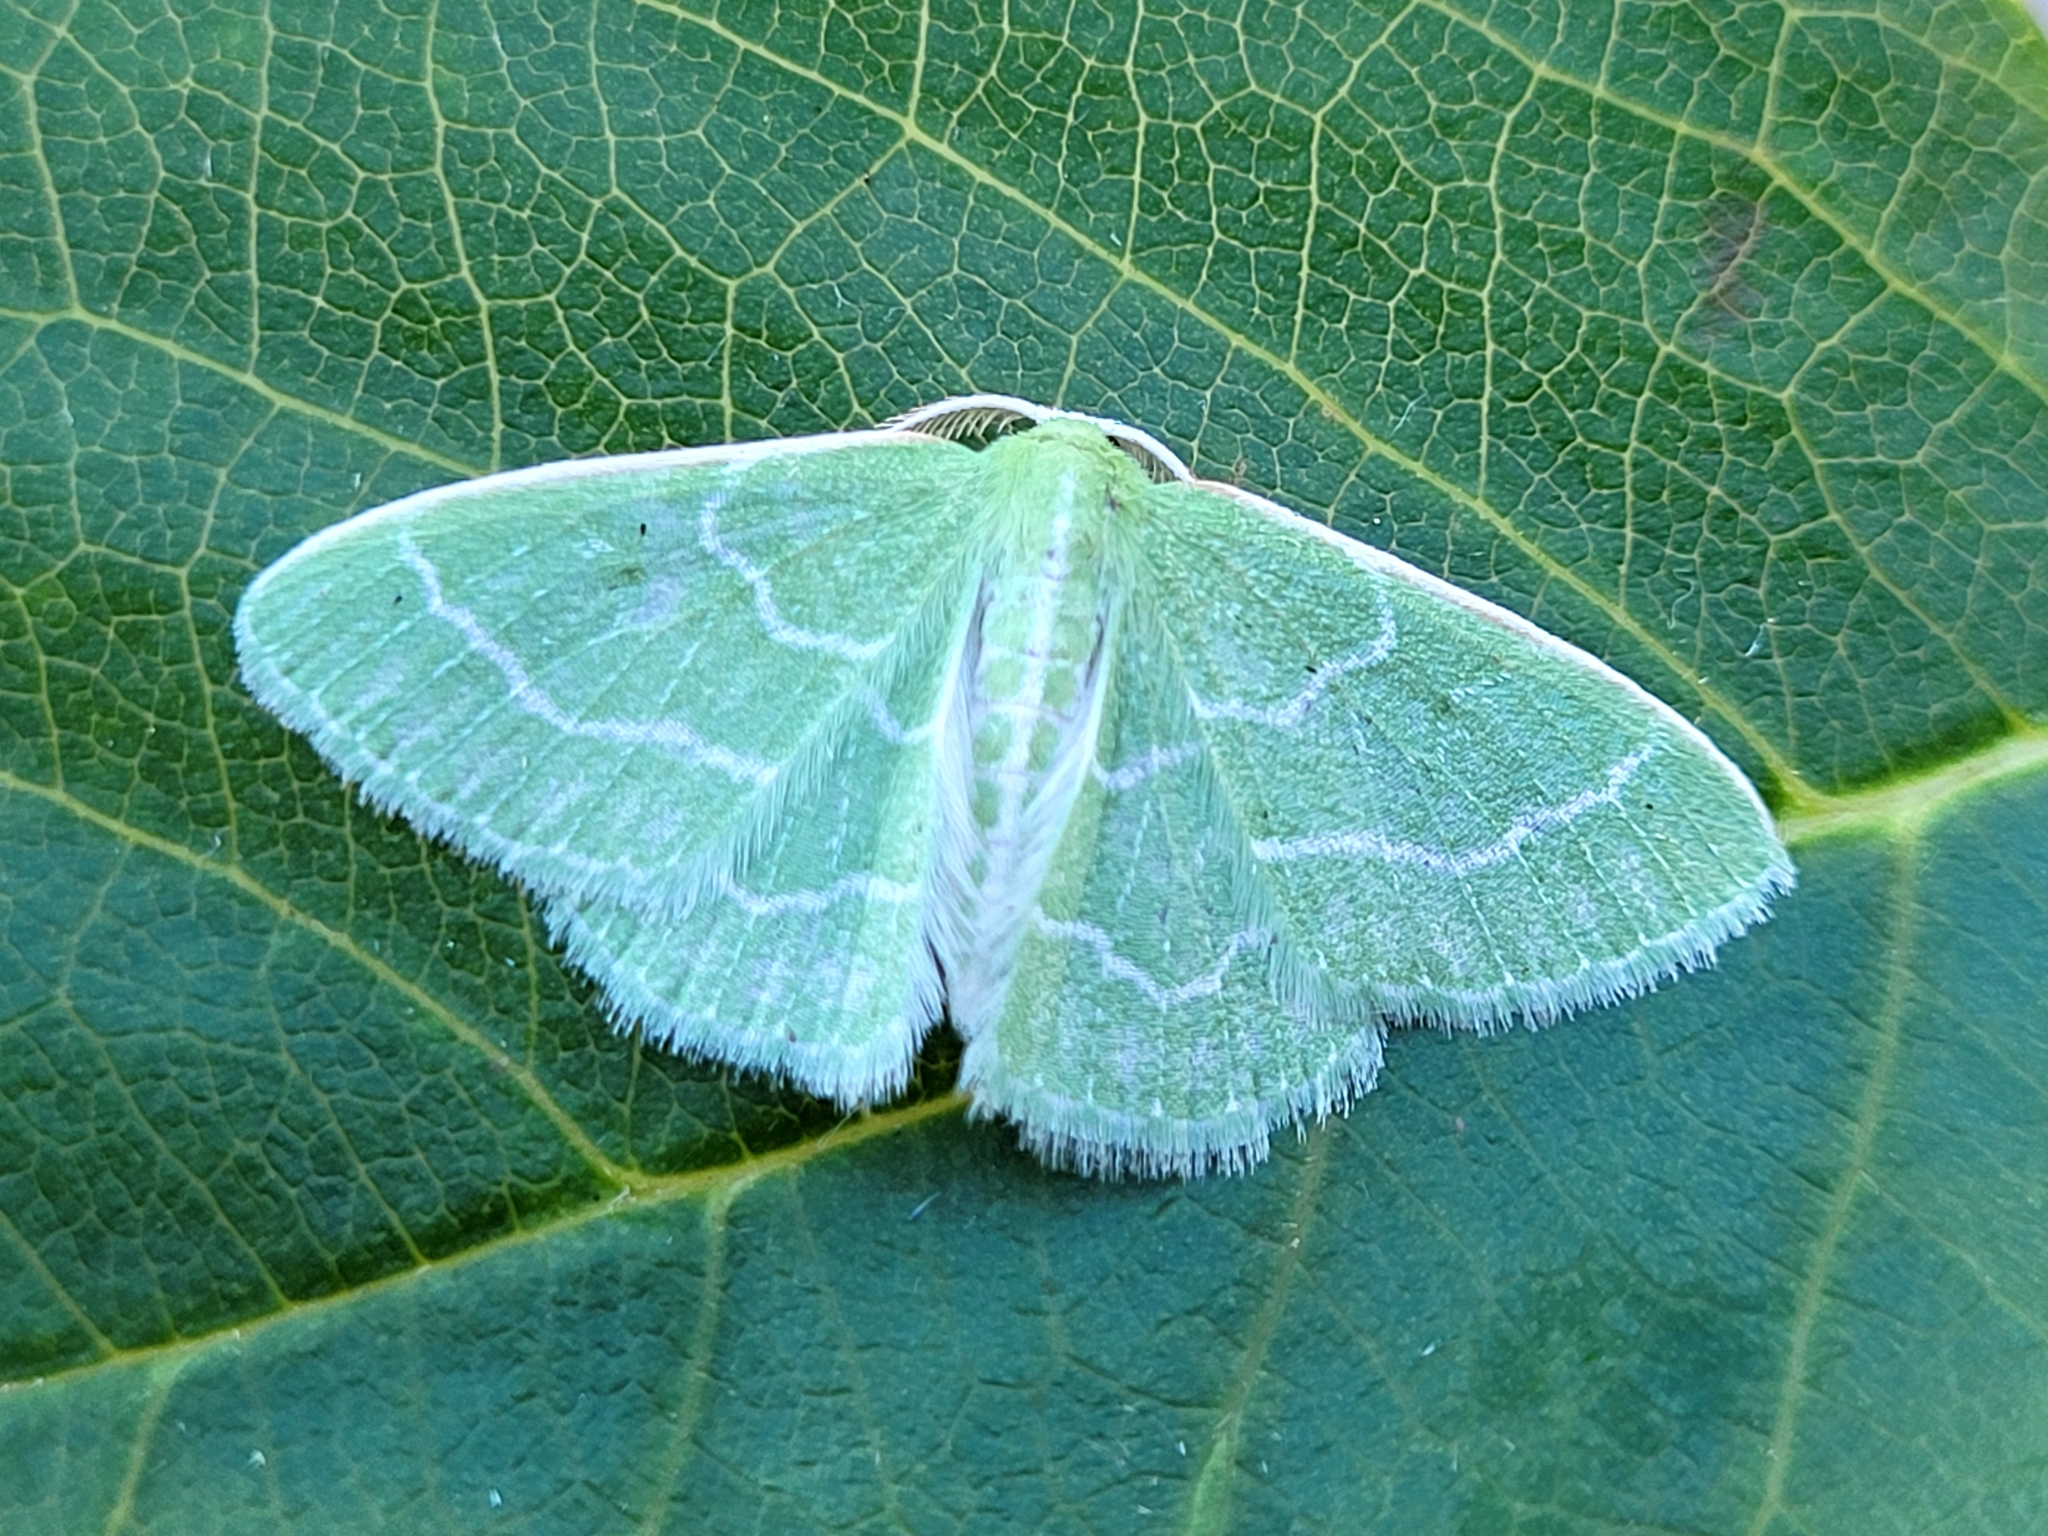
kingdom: Animalia
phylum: Arthropoda
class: Insecta
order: Lepidoptera
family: Geometridae
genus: Synchlora
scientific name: Synchlora aerata
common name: Wavy-lined emerald
